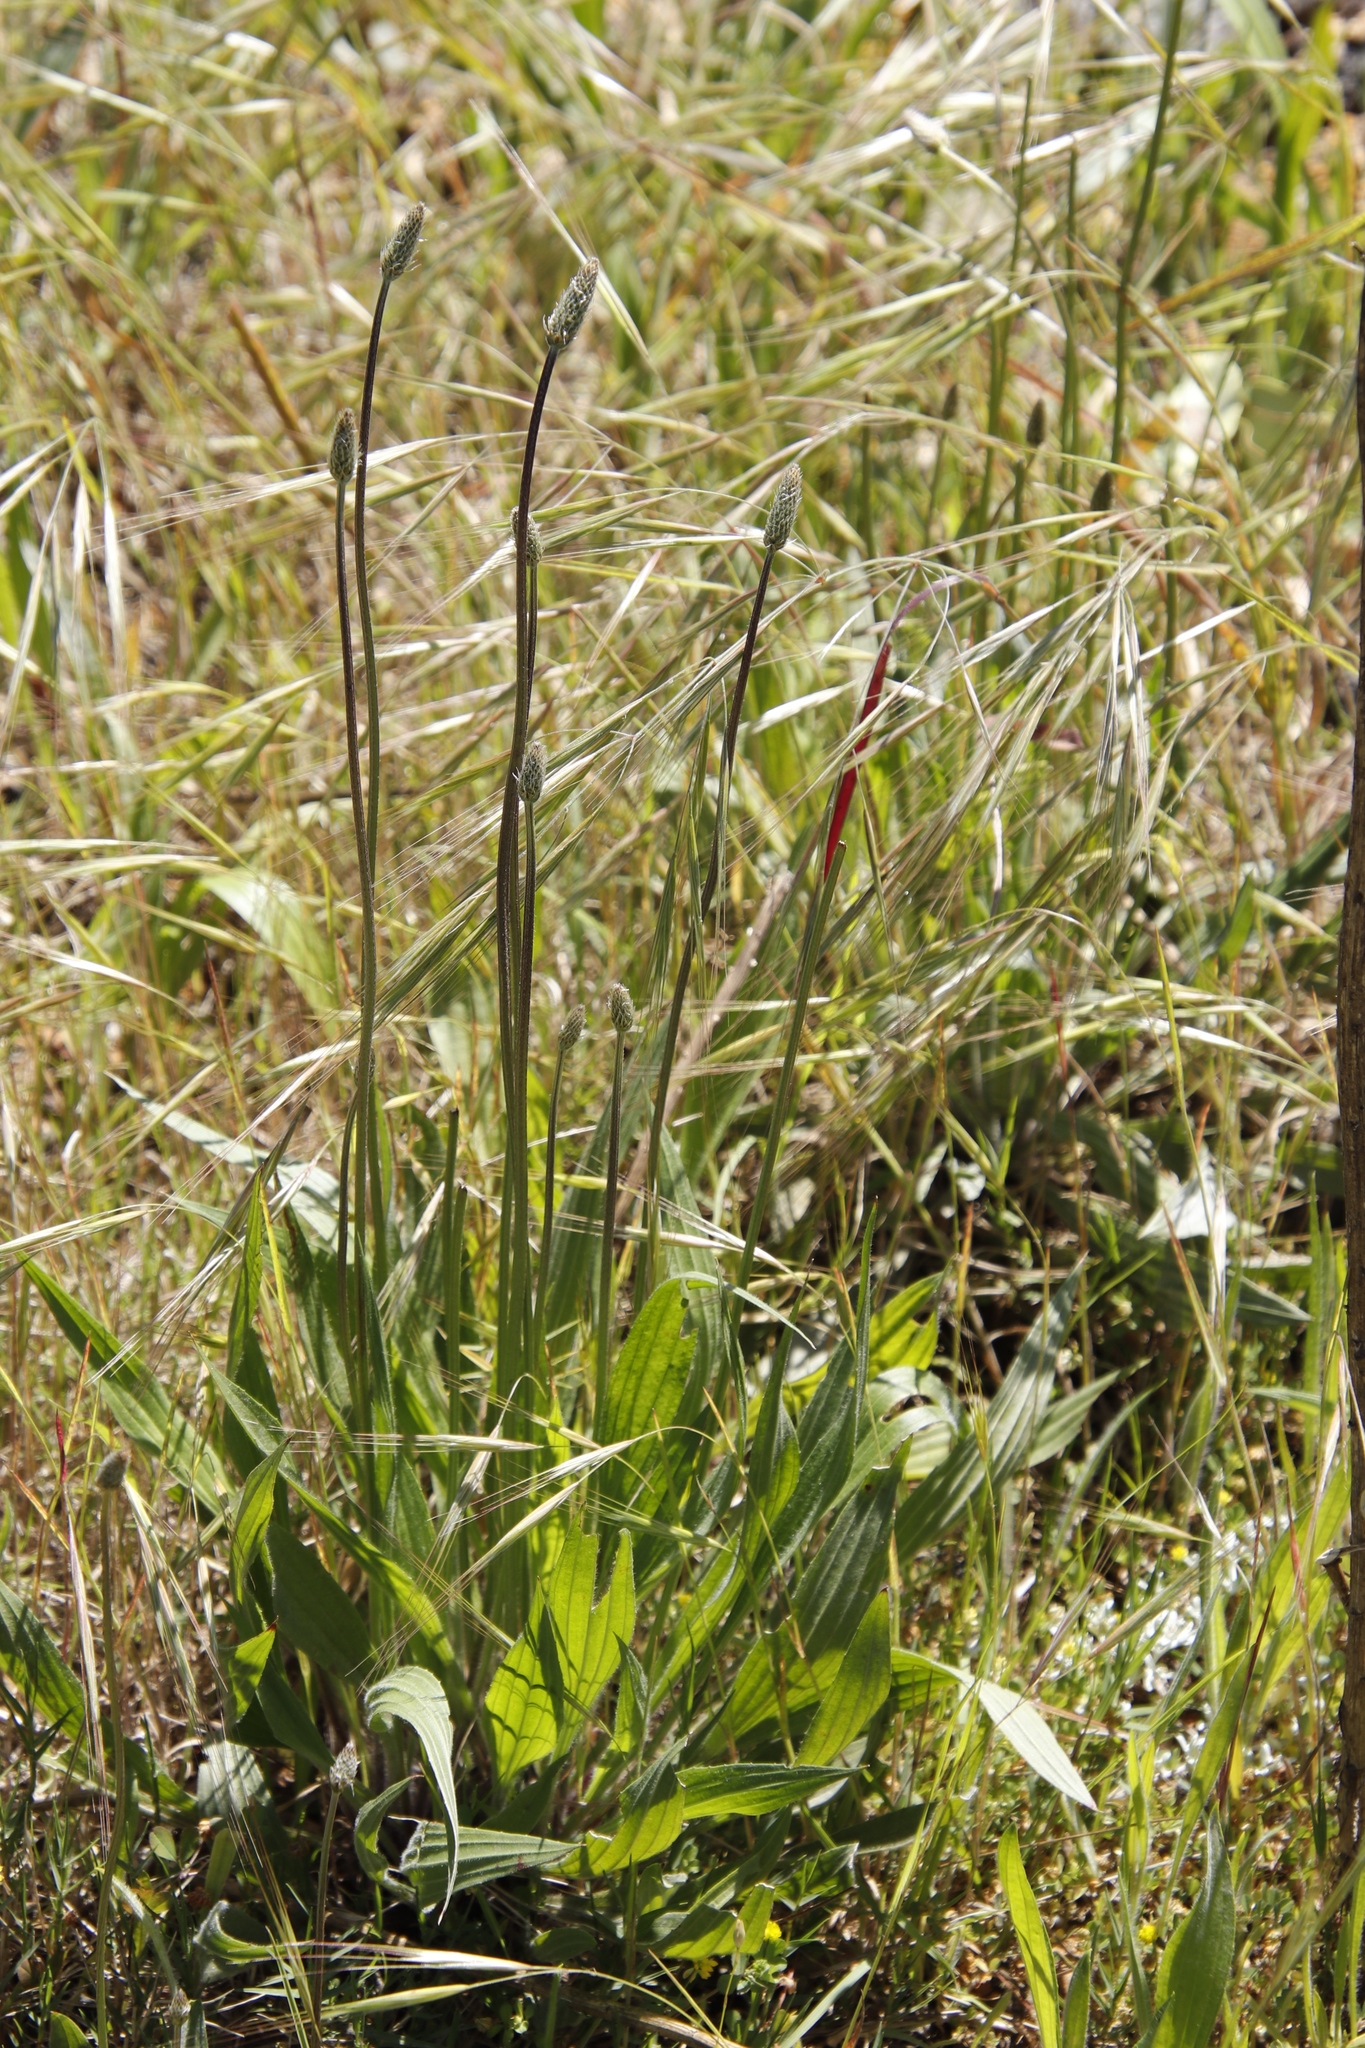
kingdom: Plantae
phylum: Tracheophyta
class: Magnoliopsida
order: Lamiales
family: Plantaginaceae
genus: Plantago
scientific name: Plantago lanceolata
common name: Ribwort plantain
